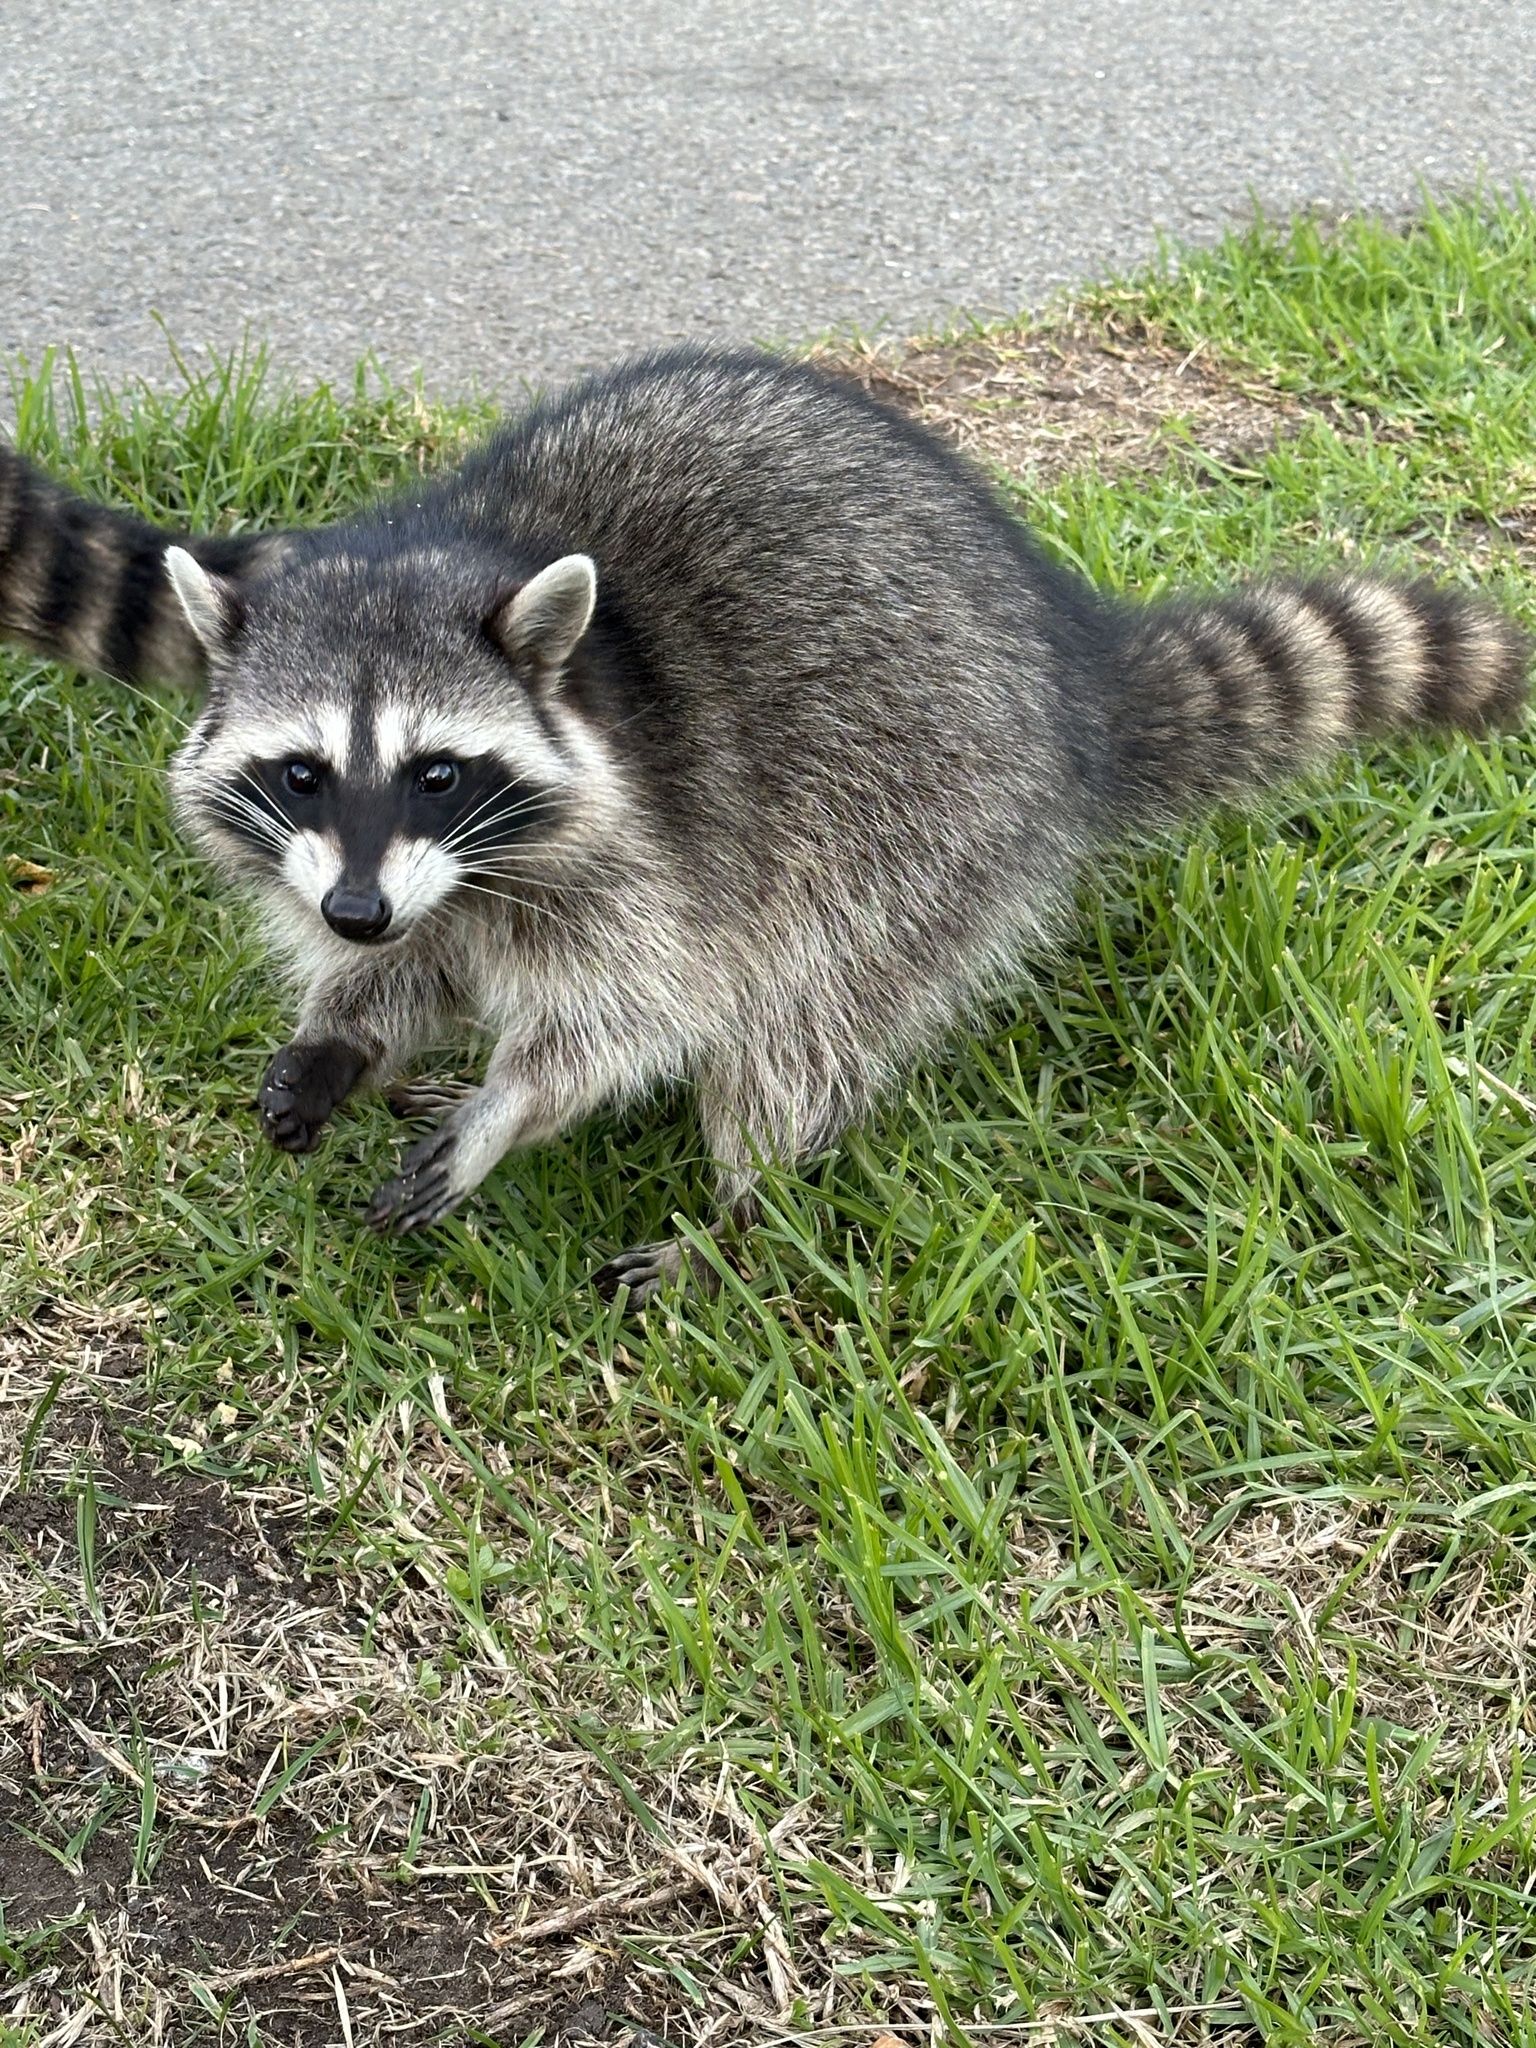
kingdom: Animalia
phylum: Chordata
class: Mammalia
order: Carnivora
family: Procyonidae
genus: Procyon
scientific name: Procyon lotor
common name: Raccoon
